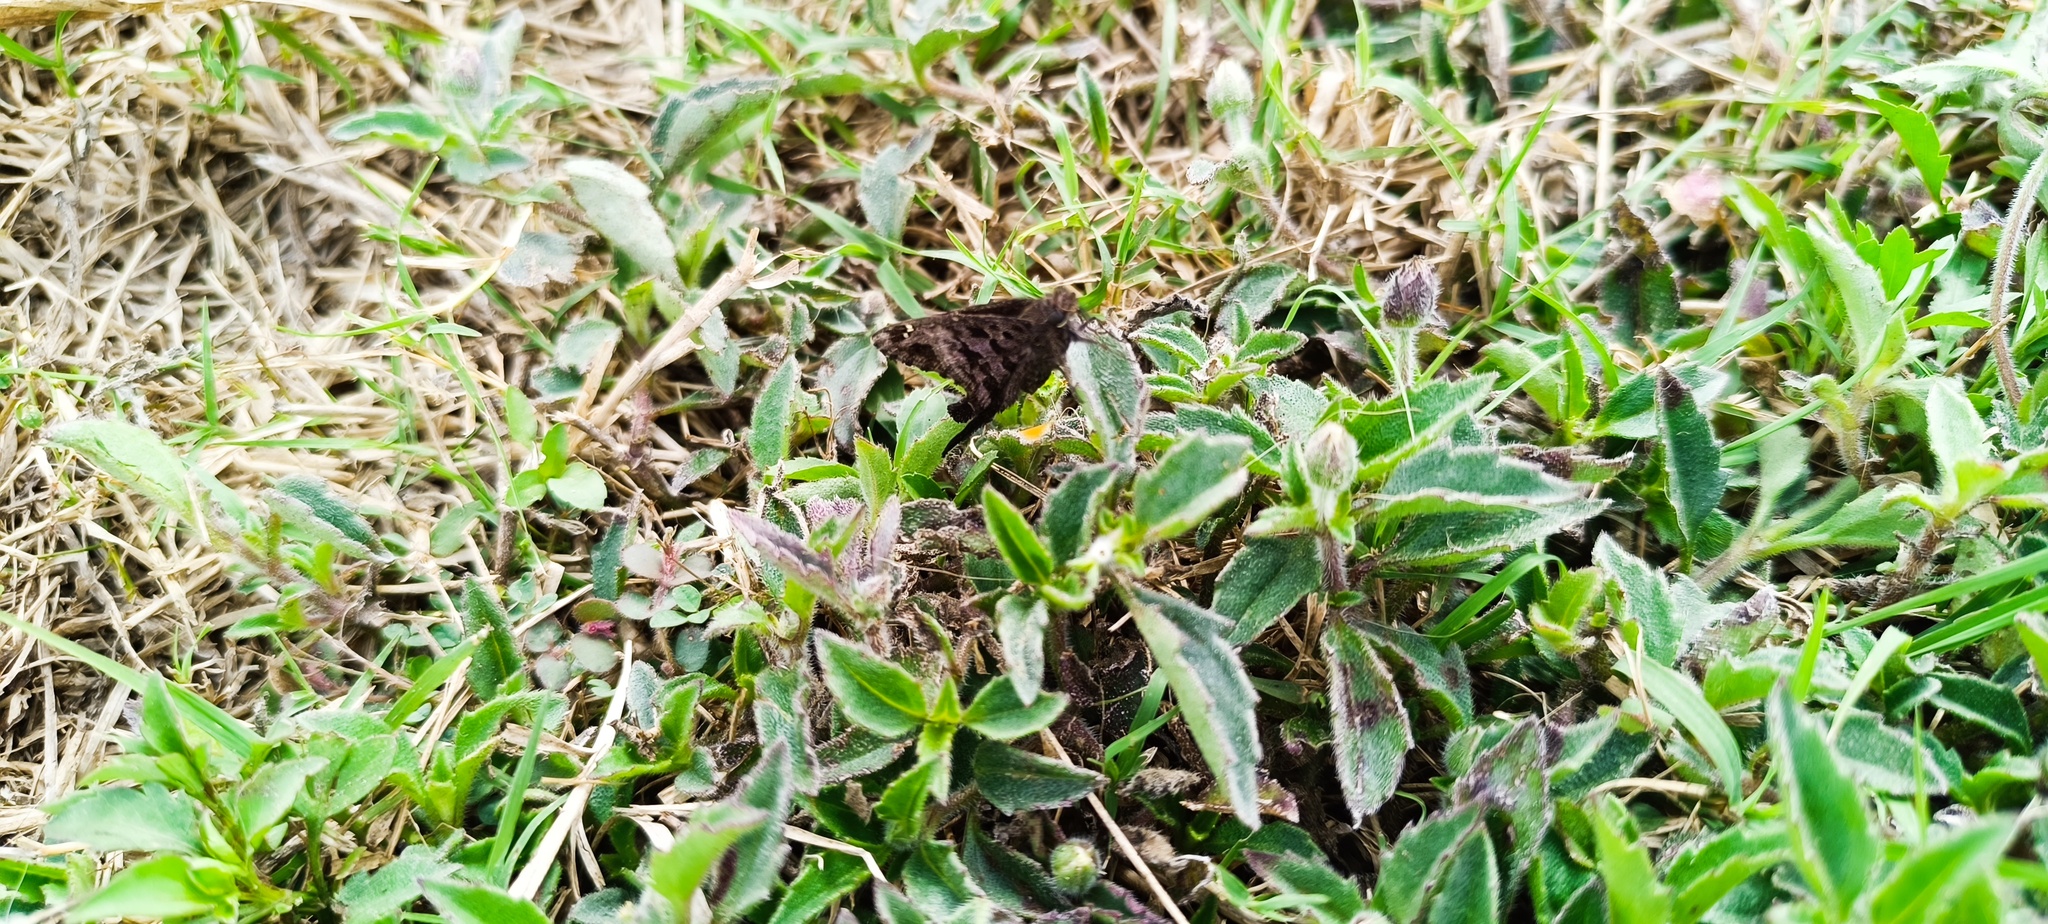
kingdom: Animalia
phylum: Arthropoda
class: Insecta
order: Lepidoptera
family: Hesperiidae
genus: Thorybes
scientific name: Thorybes
